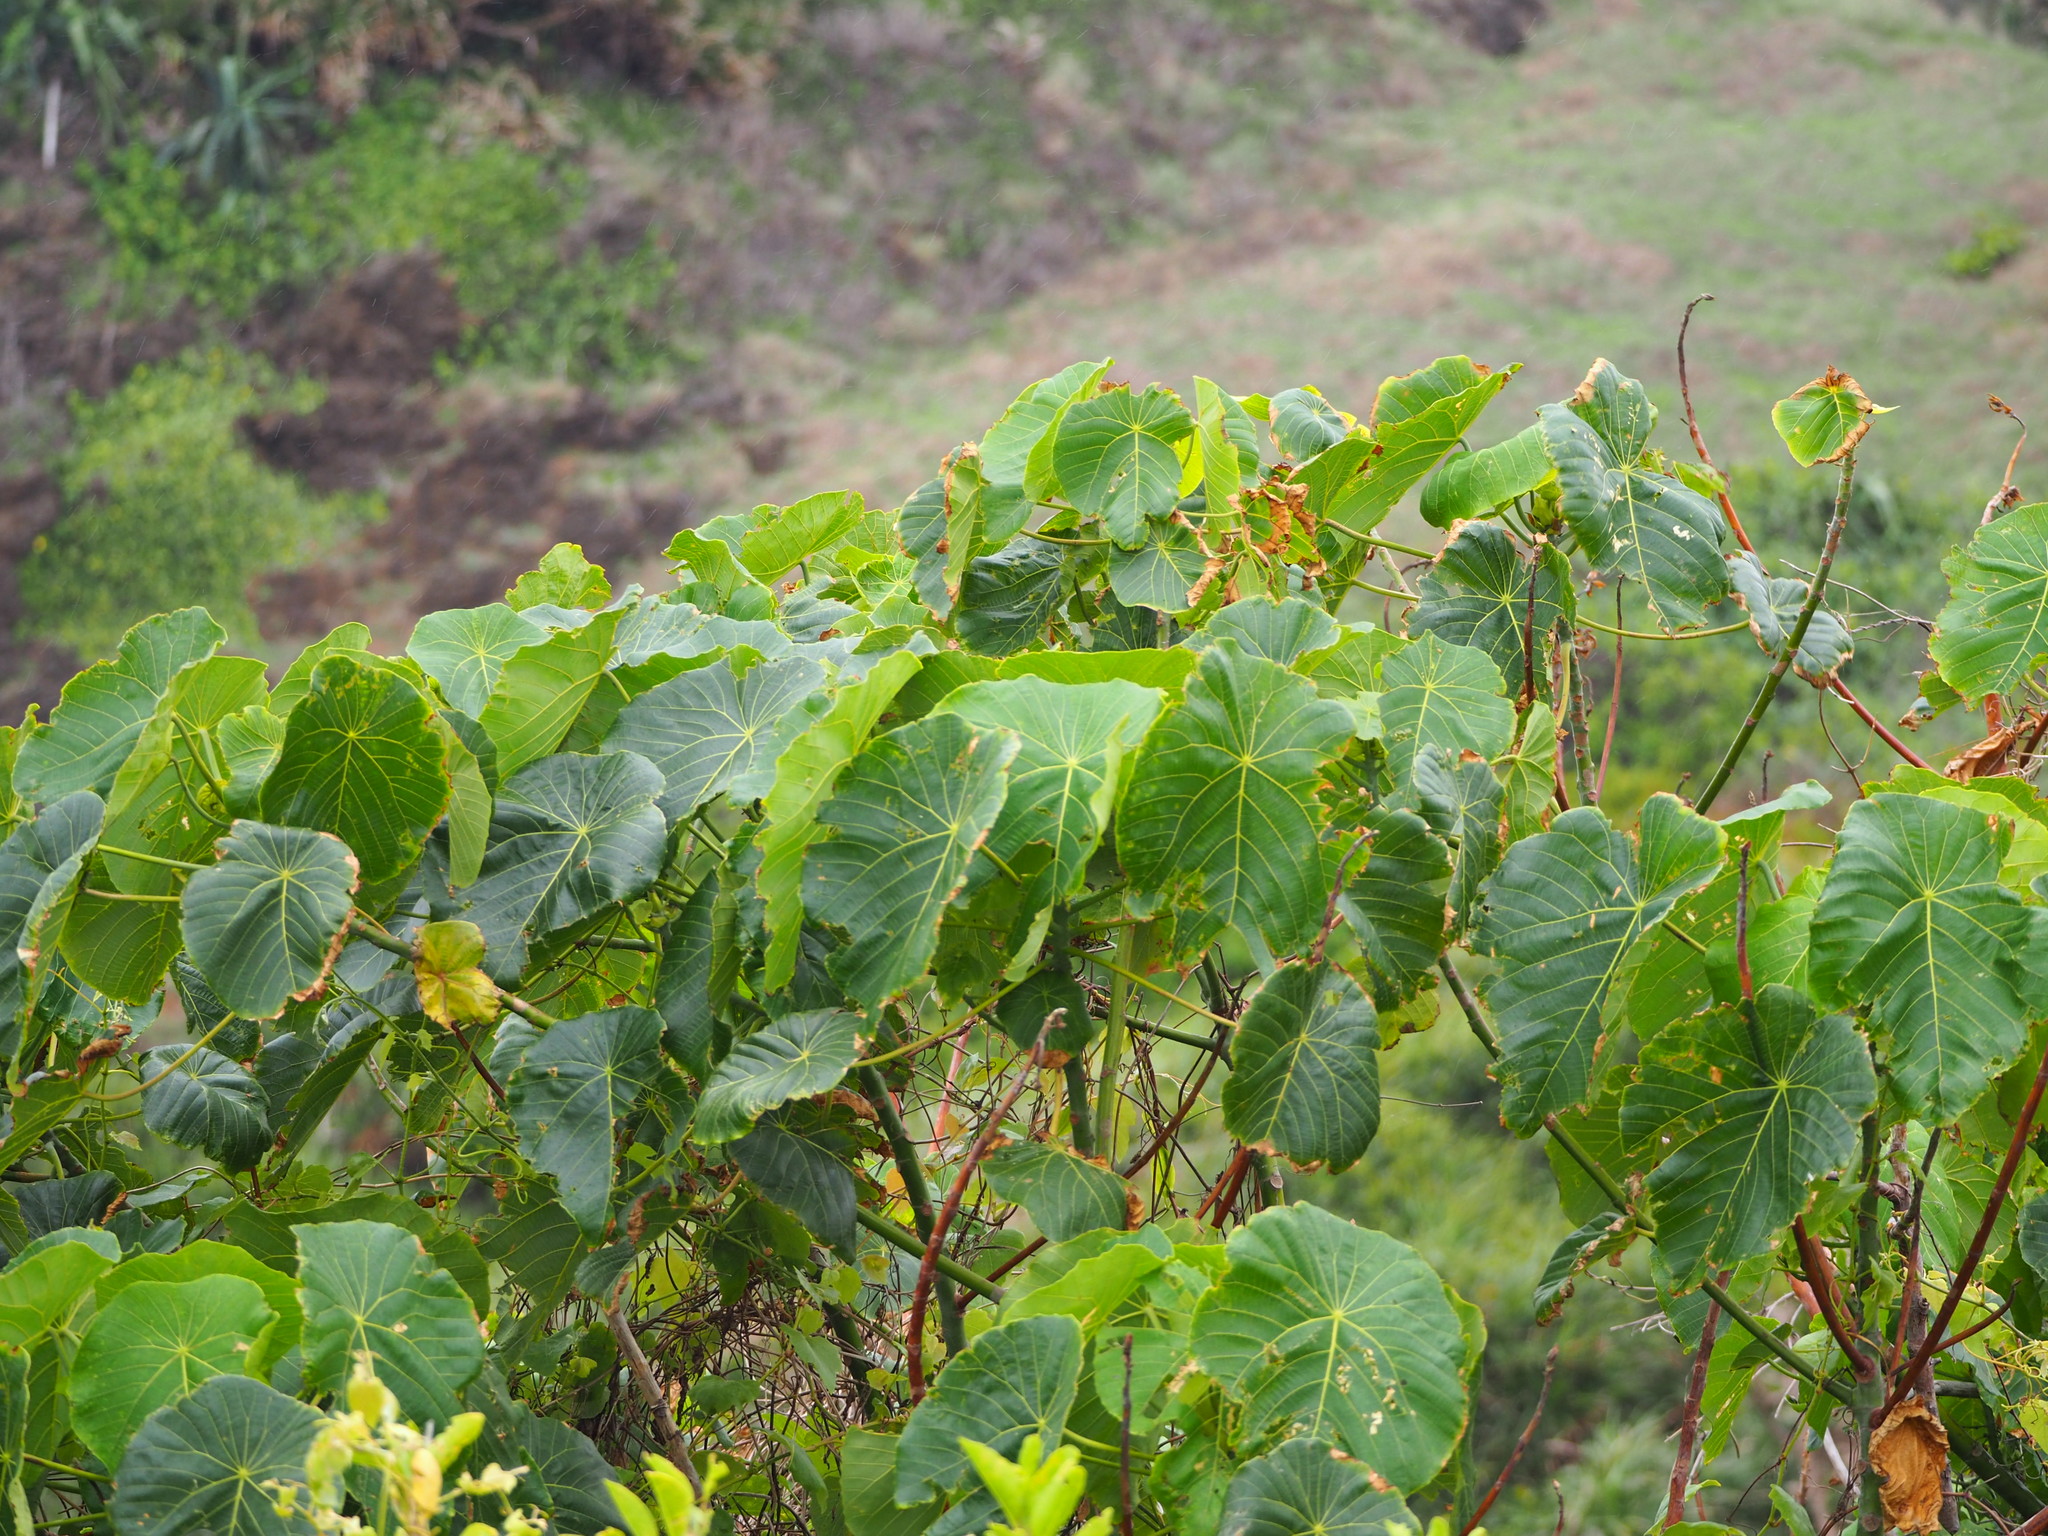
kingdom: Plantae
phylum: Tracheophyta
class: Magnoliopsida
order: Malpighiales
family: Euphorbiaceae
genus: Macaranga
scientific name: Macaranga tanarius
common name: Parasol leaf tree
